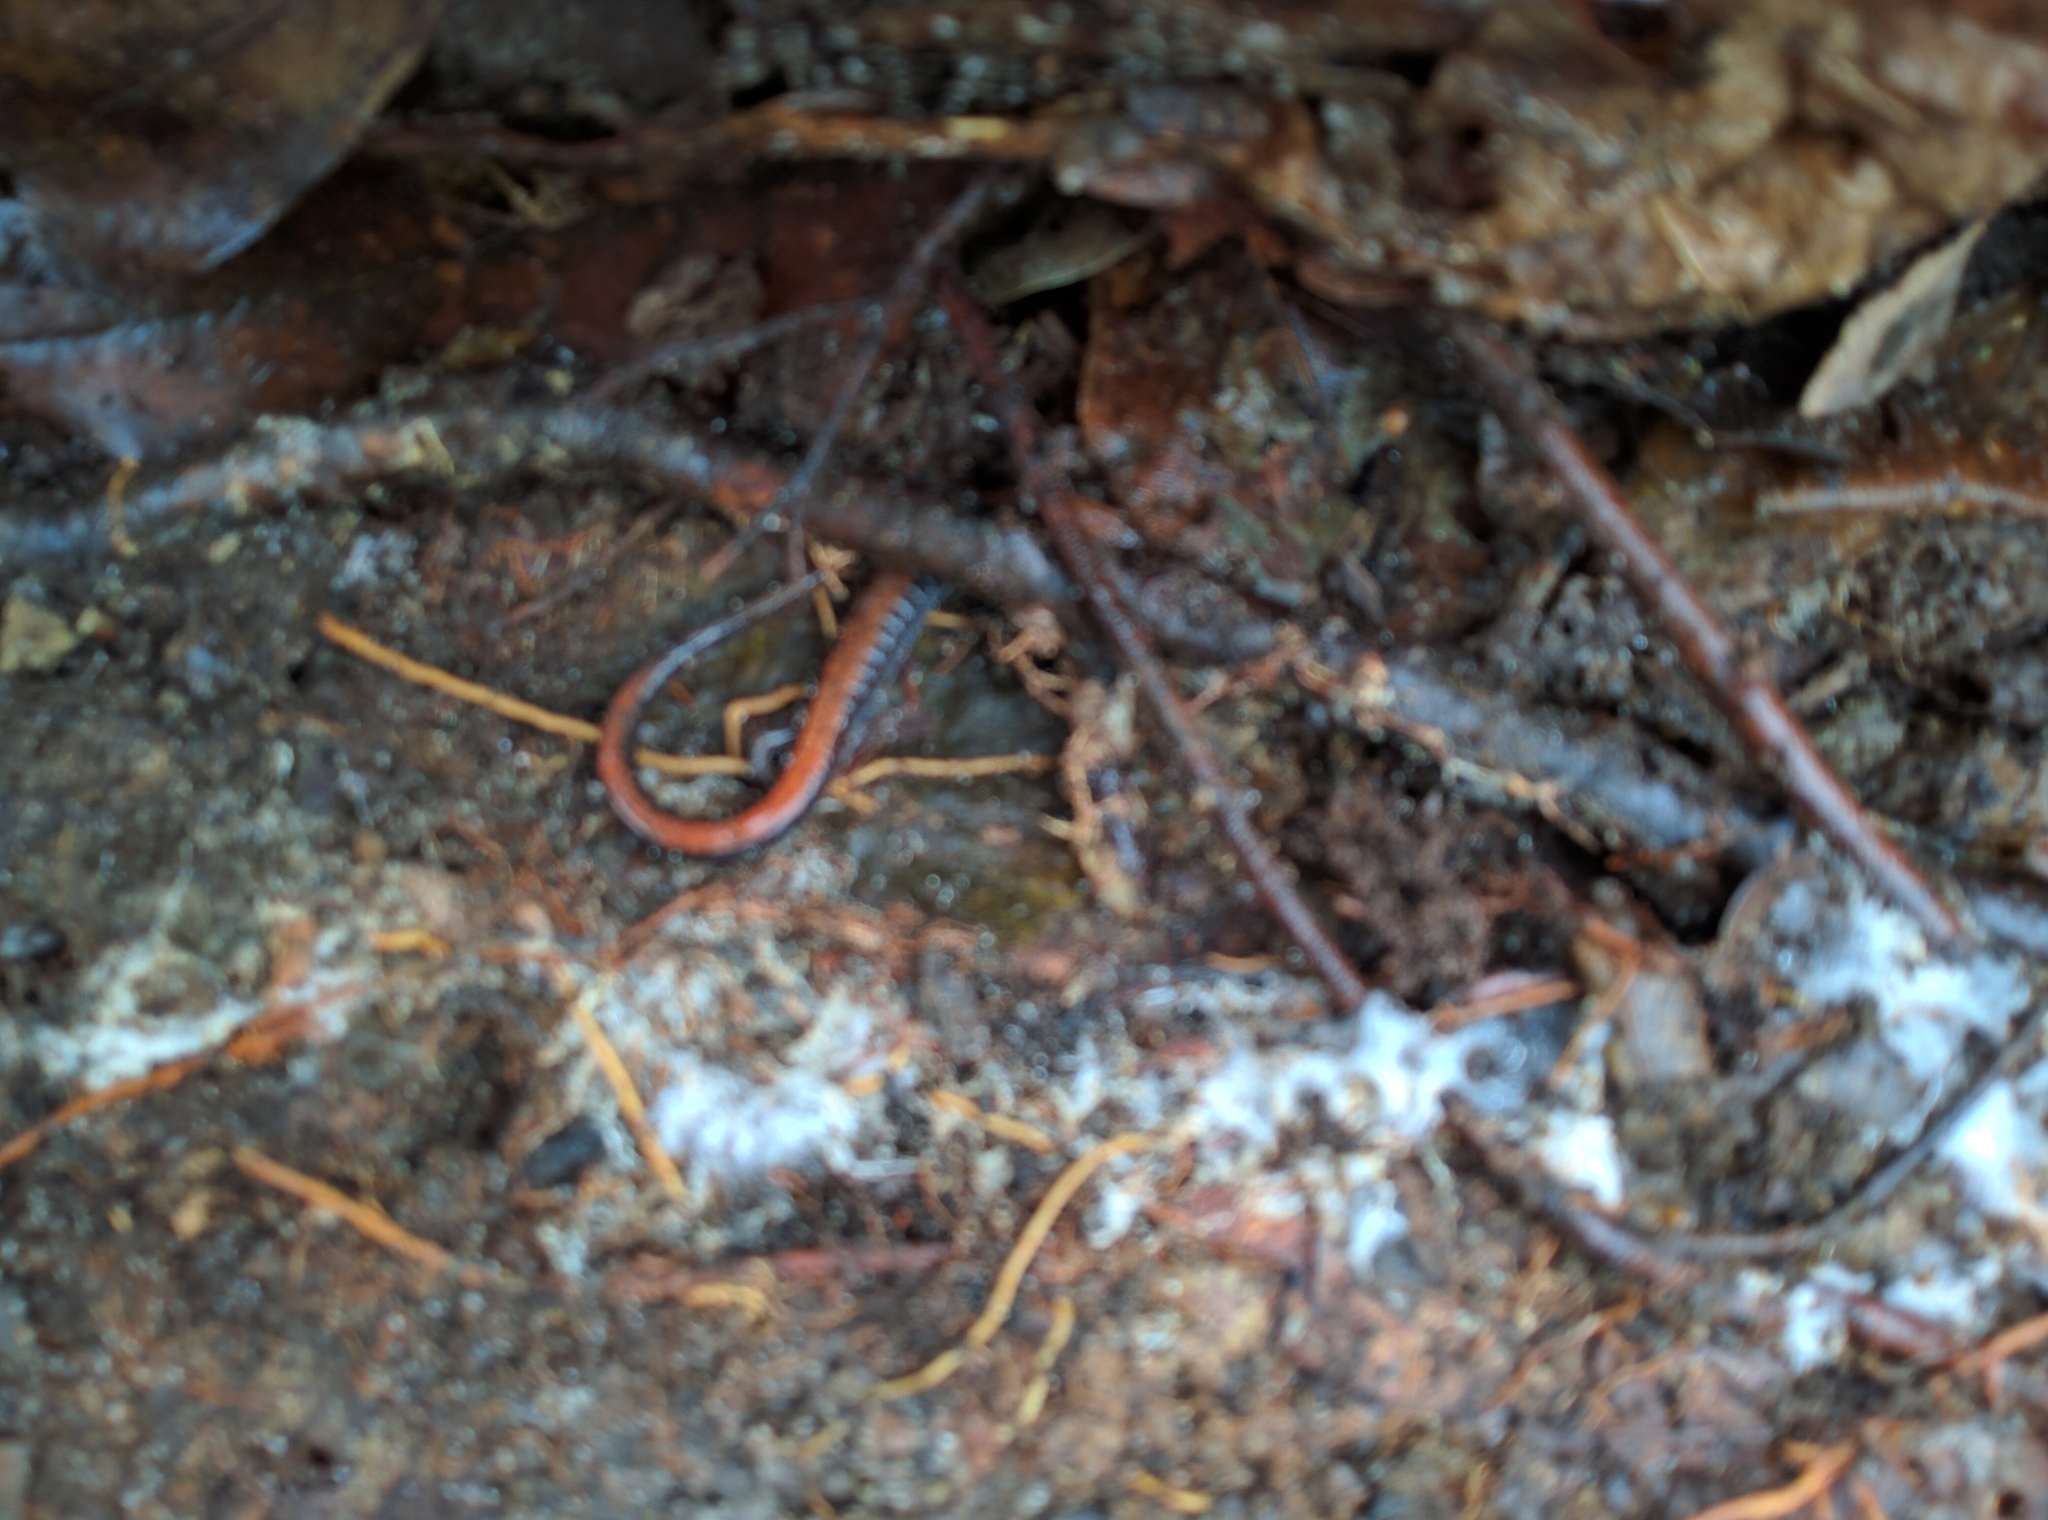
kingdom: Animalia
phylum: Chordata
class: Amphibia
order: Caudata
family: Plethodontidae
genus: Plethodon
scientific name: Plethodon cinereus
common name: Redback salamander
